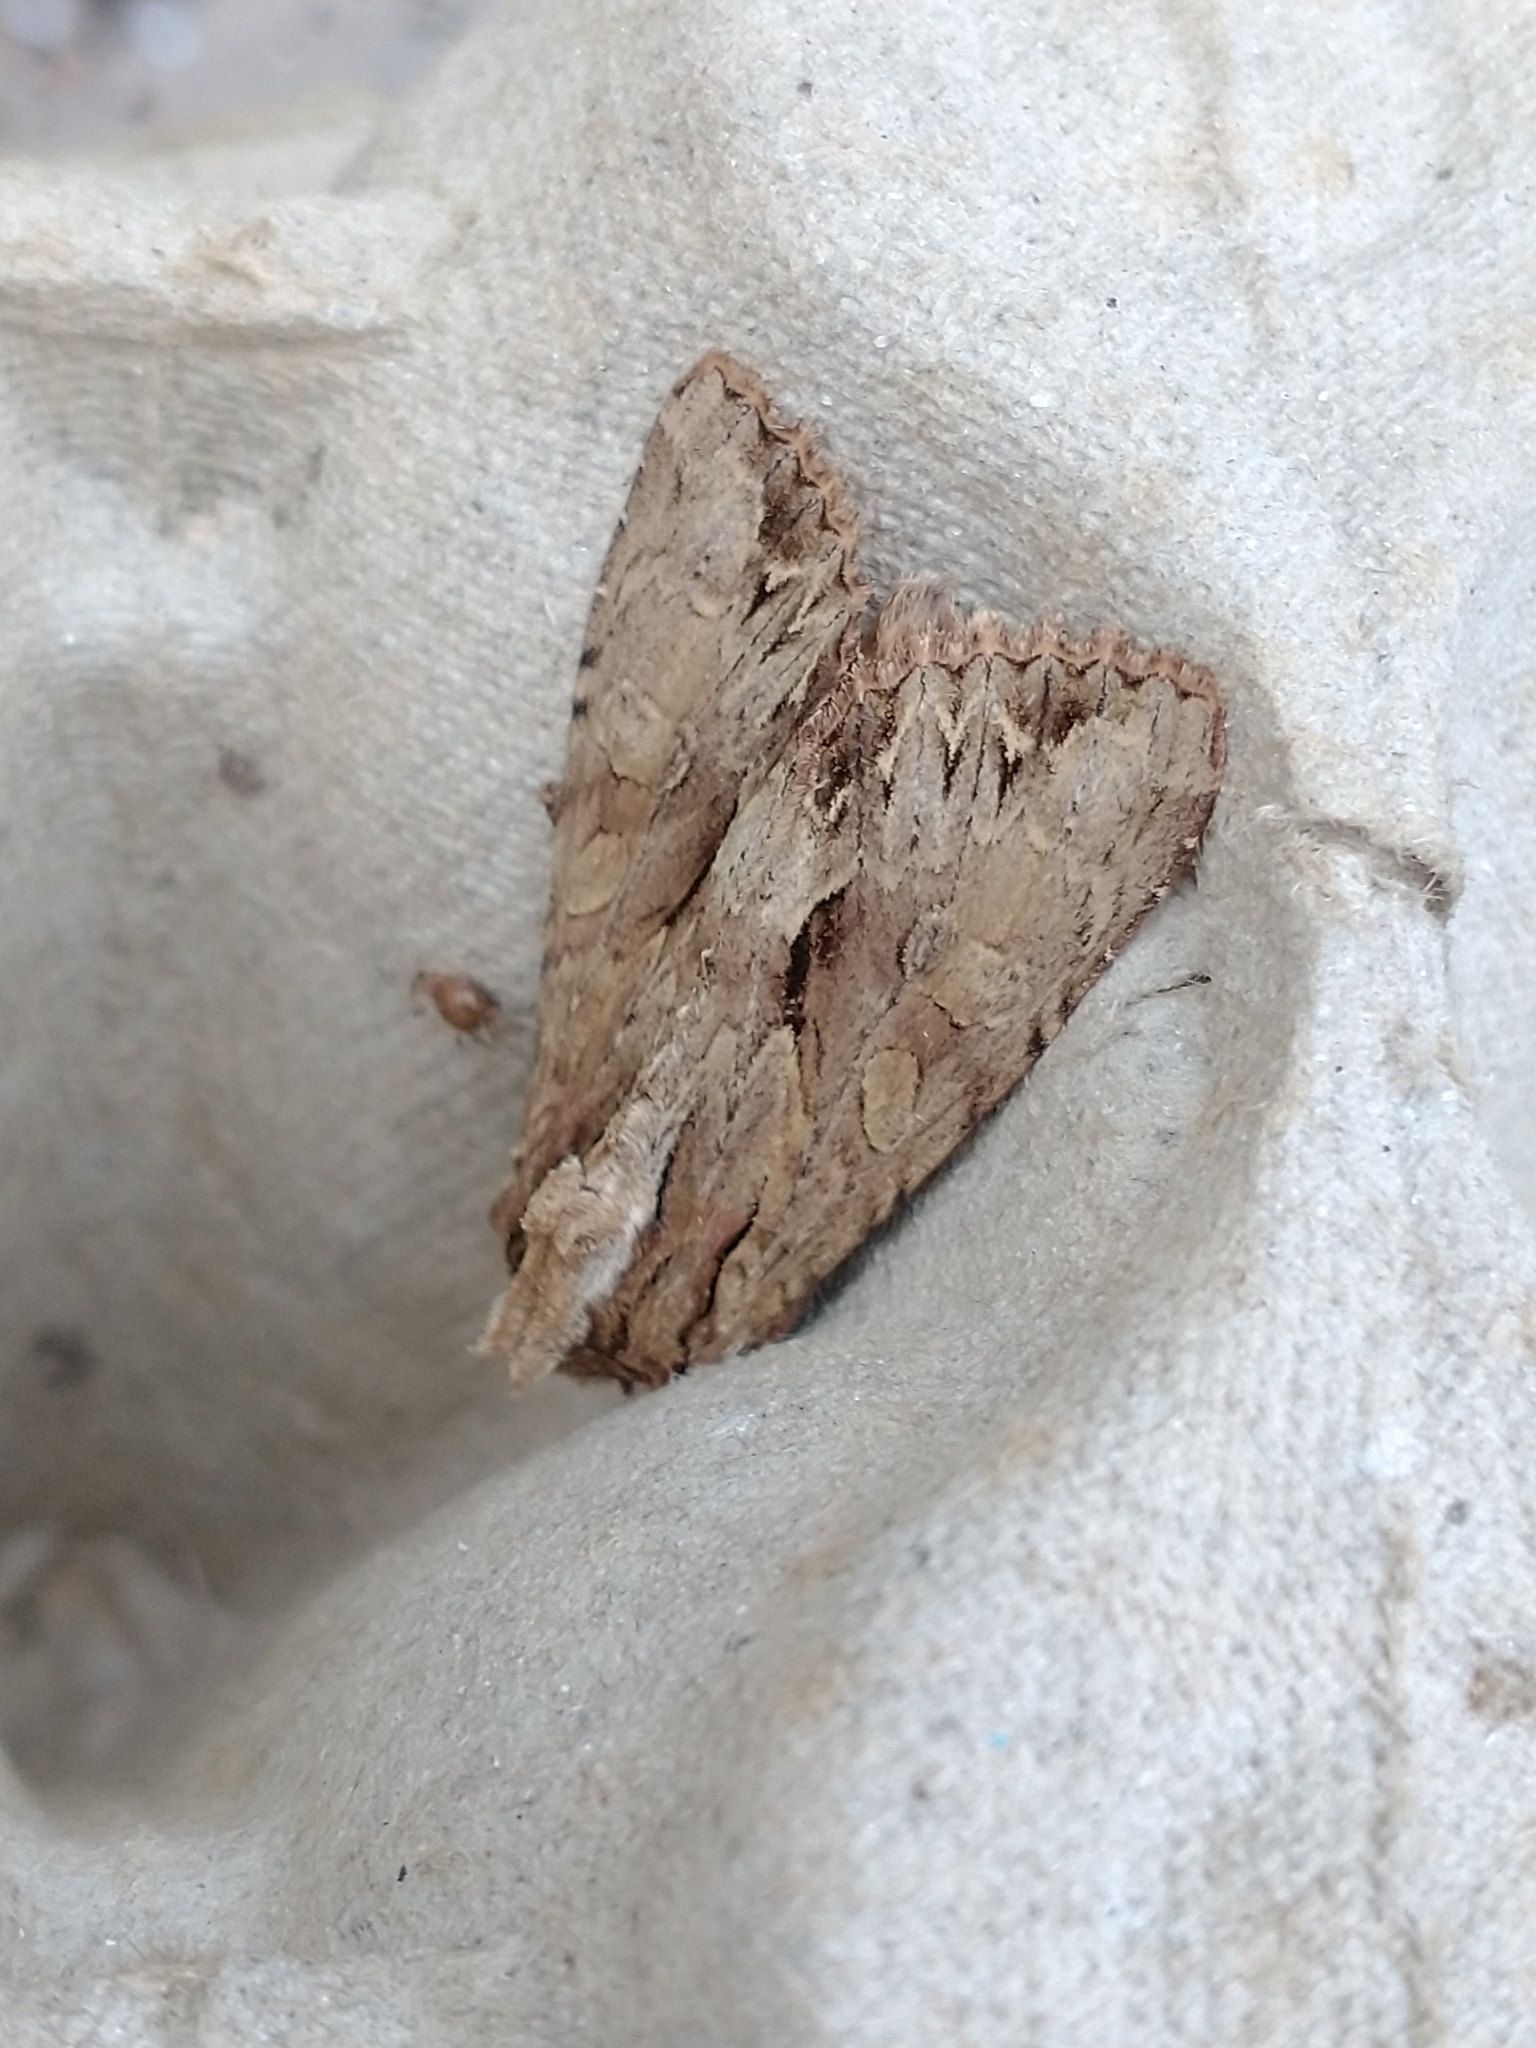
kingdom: Animalia
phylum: Arthropoda
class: Insecta
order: Lepidoptera
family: Noctuidae
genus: Apamea
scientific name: Apamea monoglypha
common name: Dark arches
